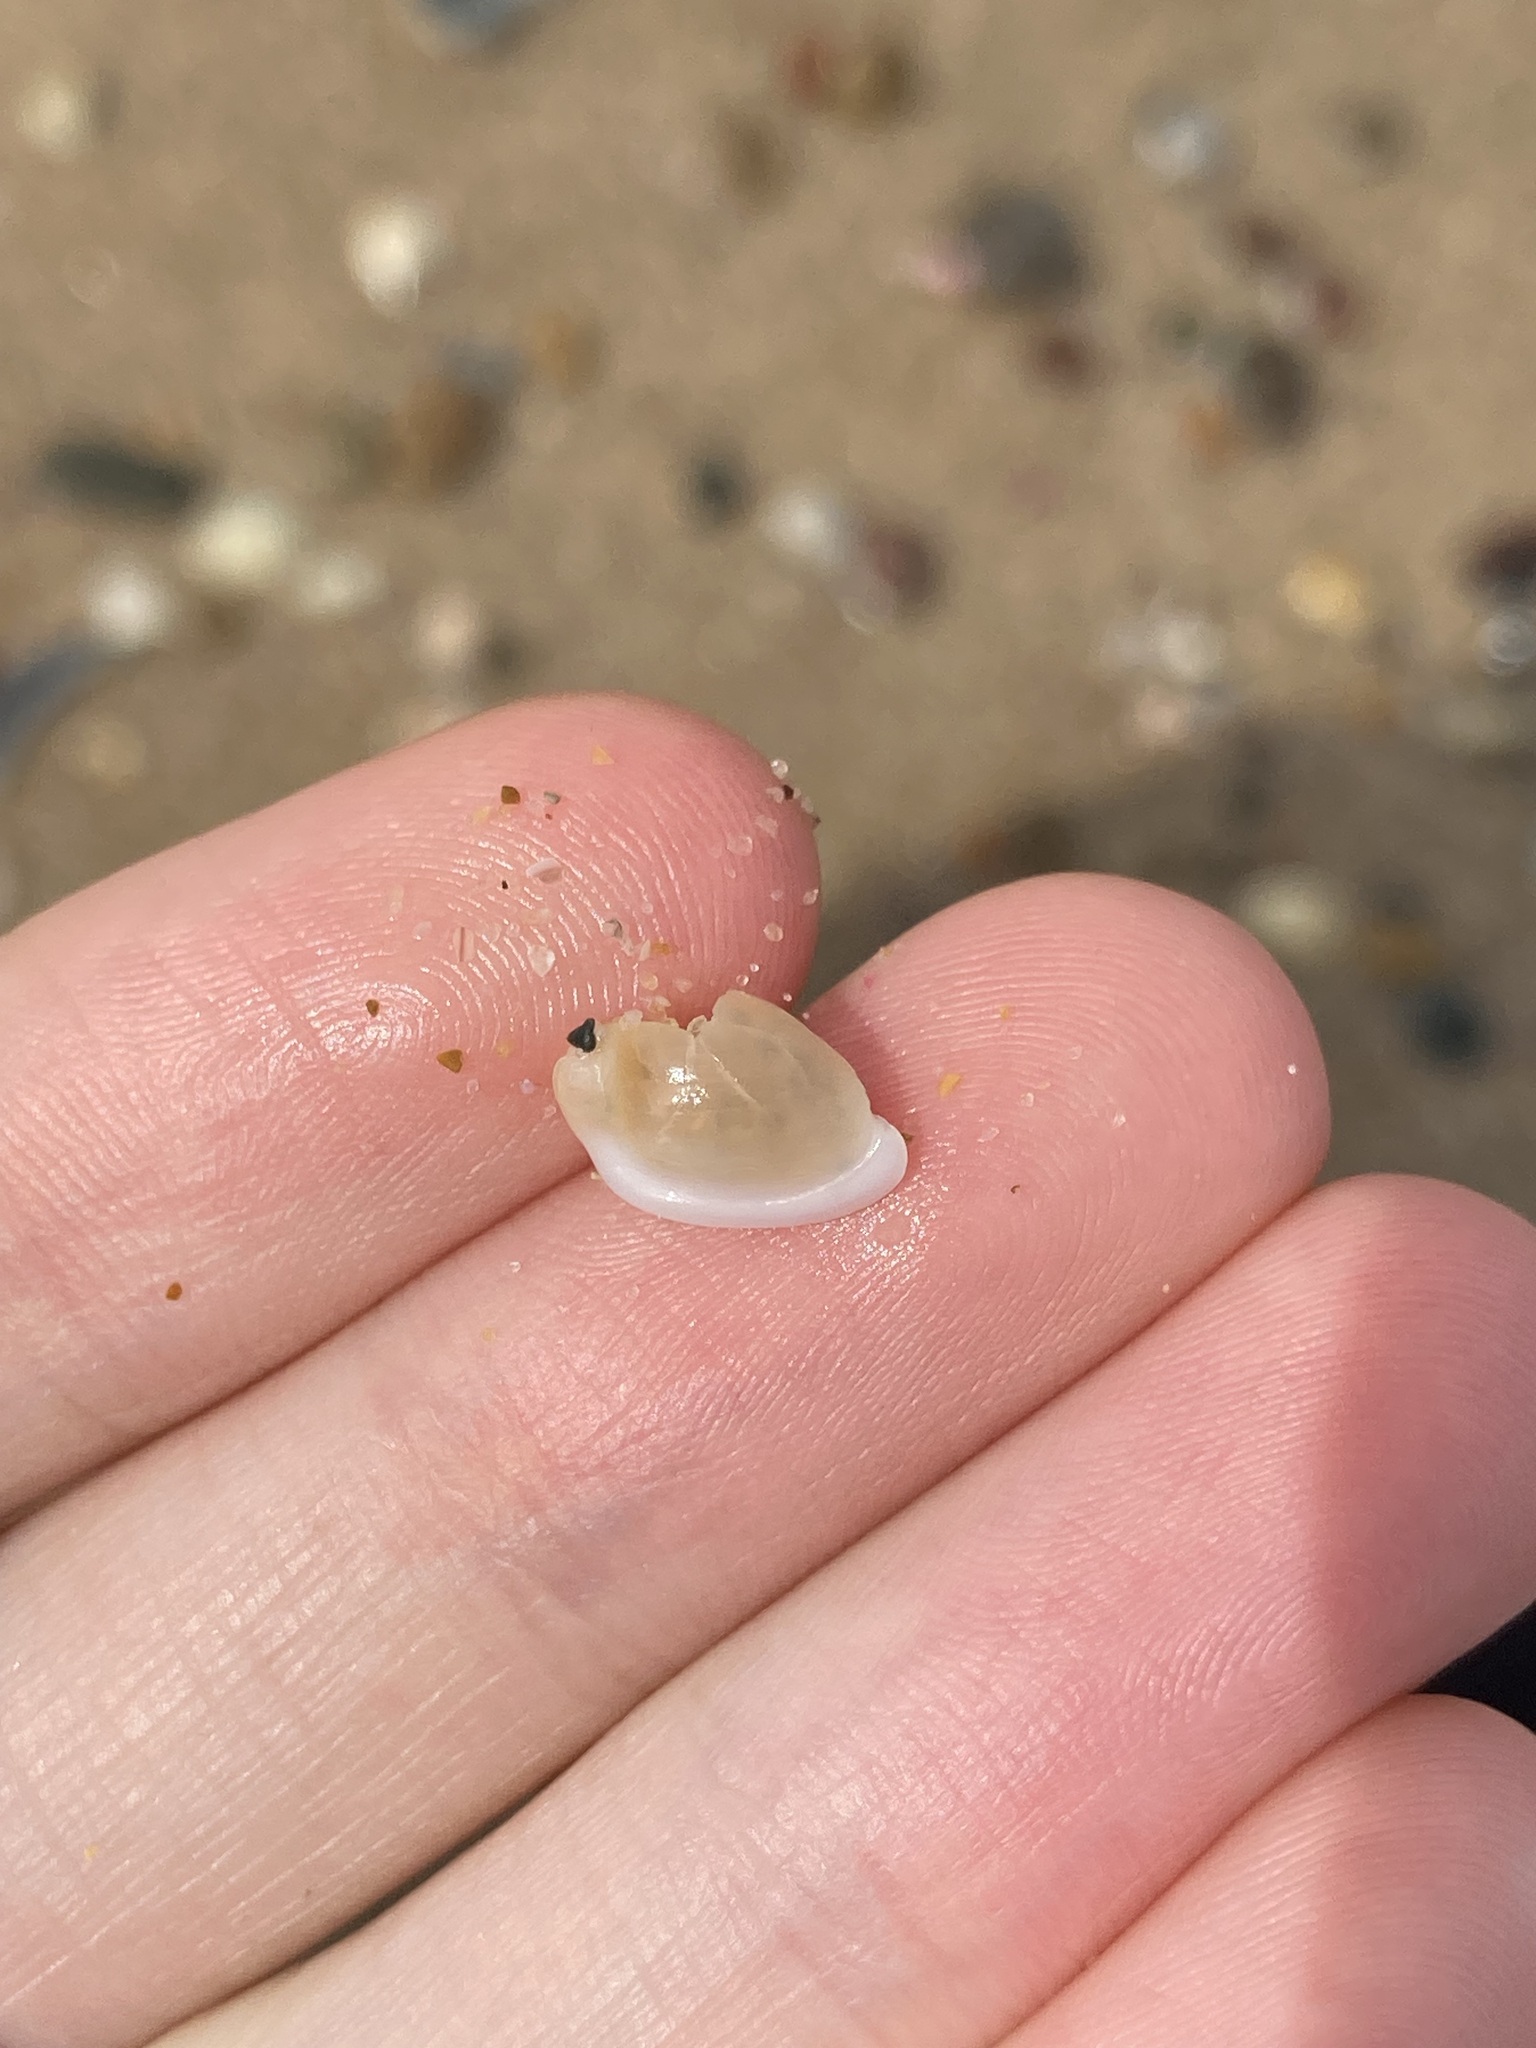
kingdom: Animalia
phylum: Mollusca
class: Gastropoda
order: Neogastropoda
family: Marginellidae
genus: Austroginella
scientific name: Austroginella muscaria
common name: Fly marginella
